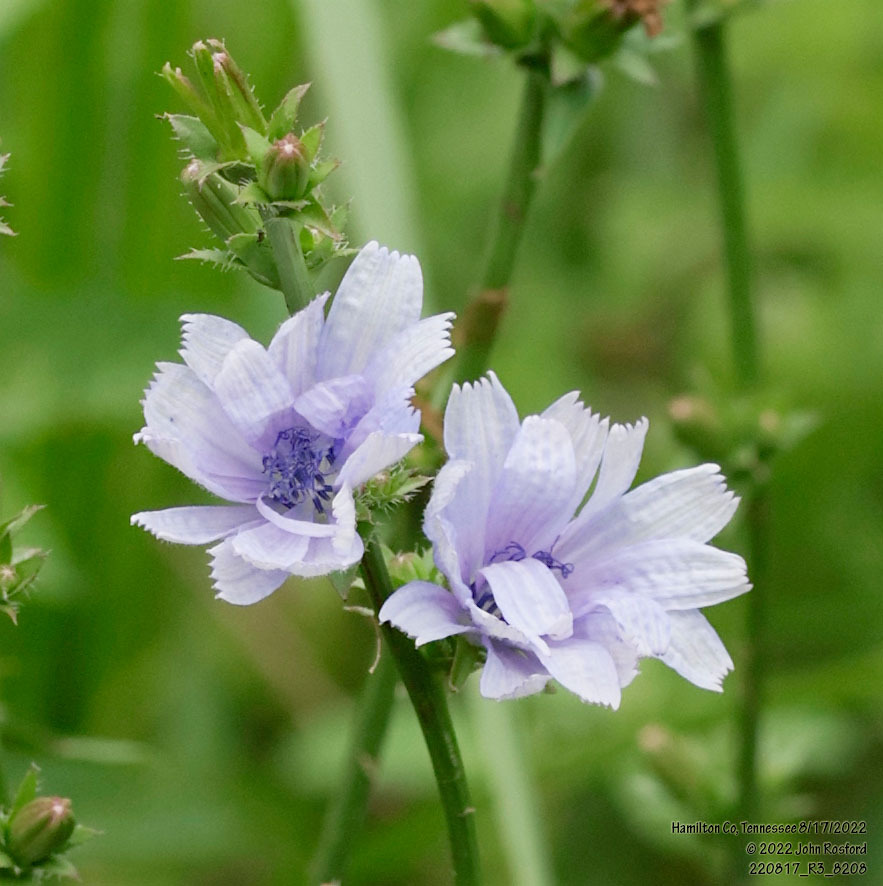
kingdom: Plantae
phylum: Tracheophyta
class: Magnoliopsida
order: Asterales
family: Asteraceae
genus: Cichorium
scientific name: Cichorium intybus
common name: Chicory
